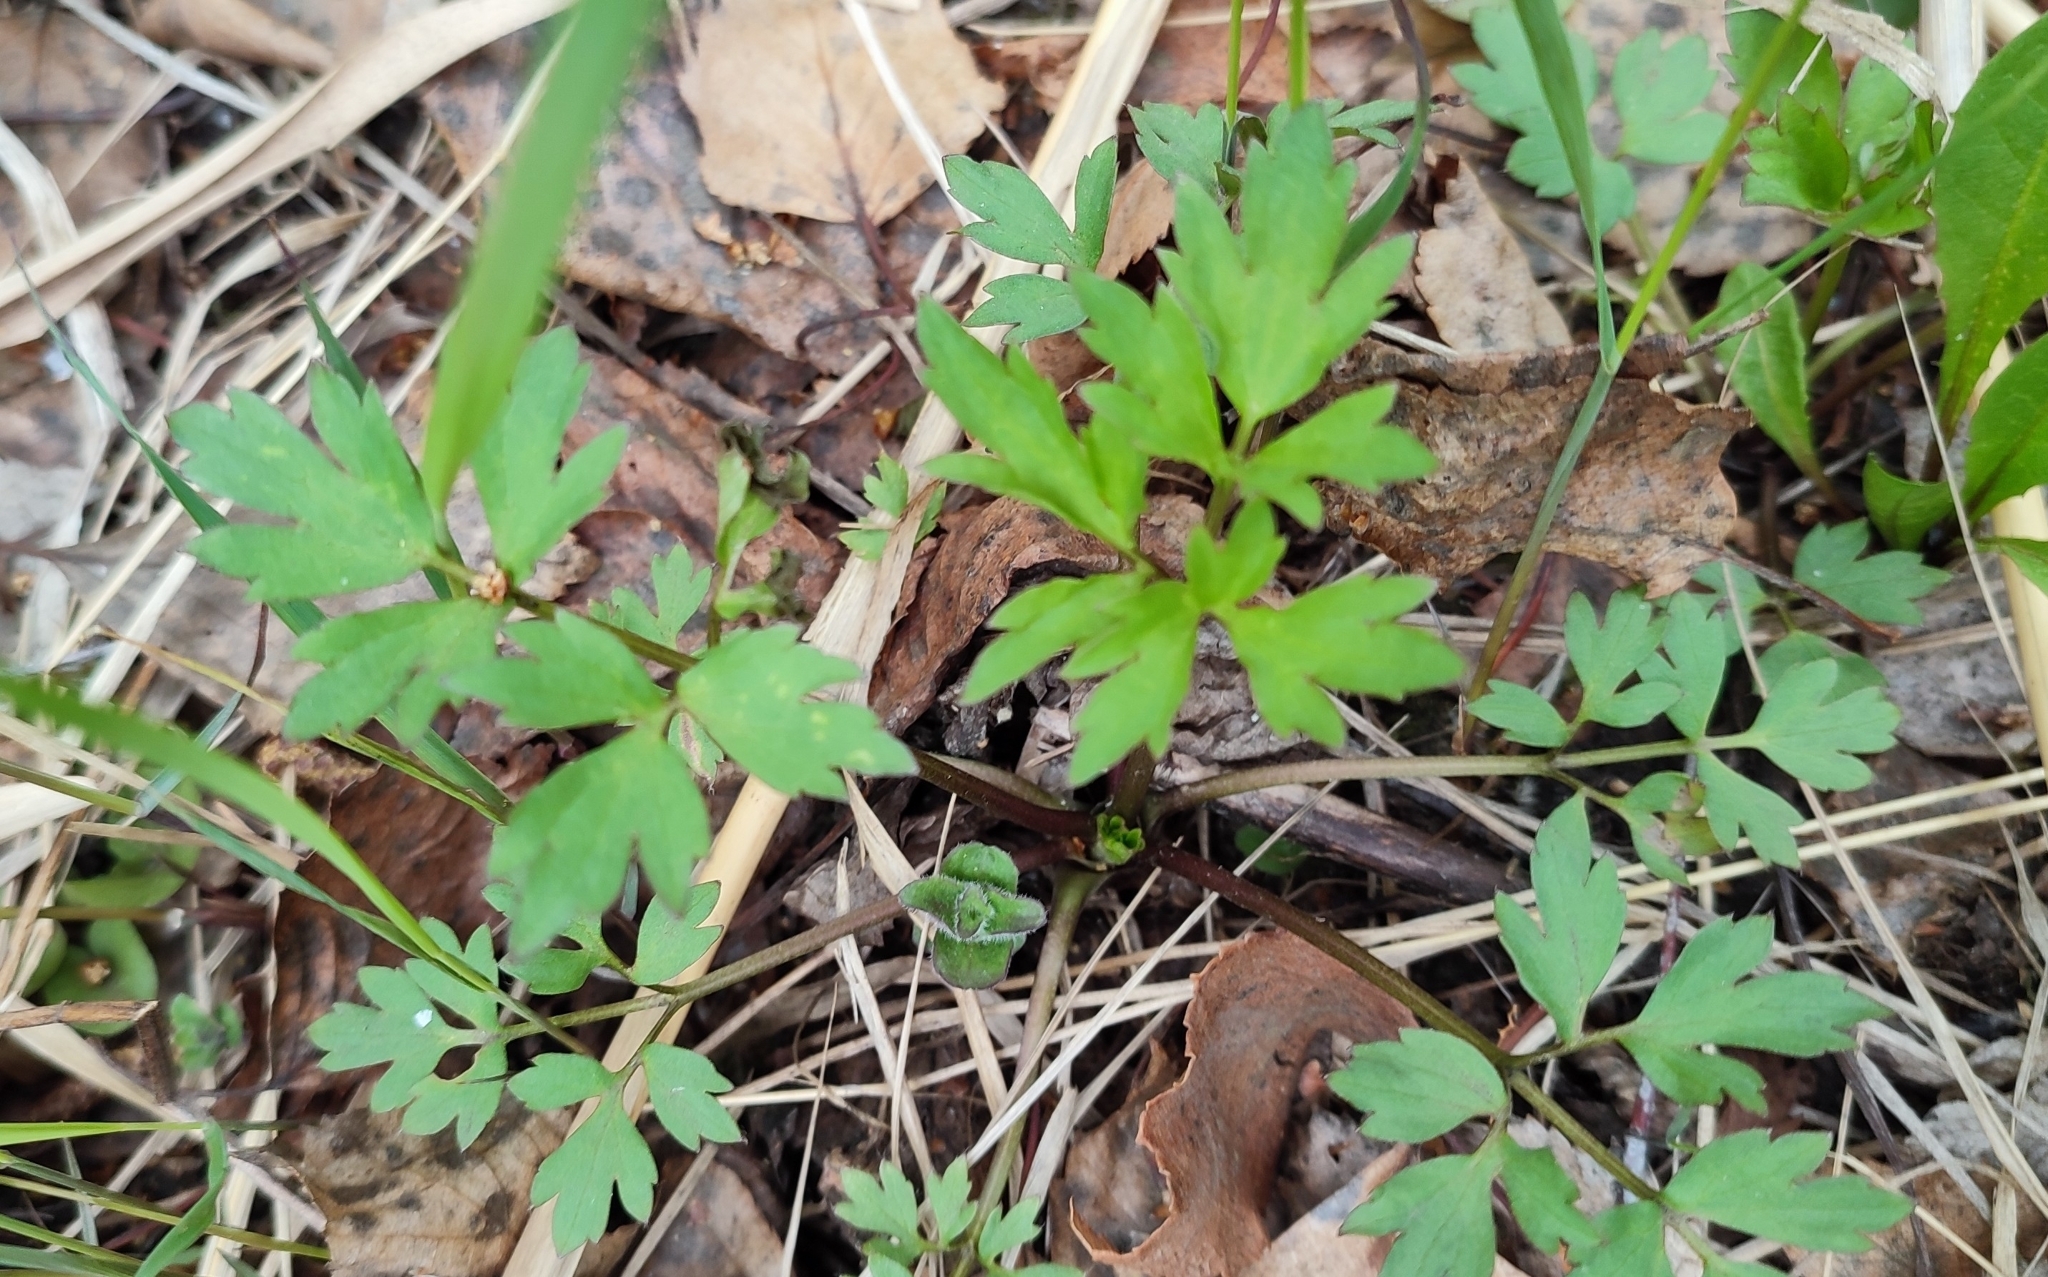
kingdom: Plantae
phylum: Tracheophyta
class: Magnoliopsida
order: Ranunculales
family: Ranunculaceae
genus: Ranunculus
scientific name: Ranunculus repens
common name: Creeping buttercup
